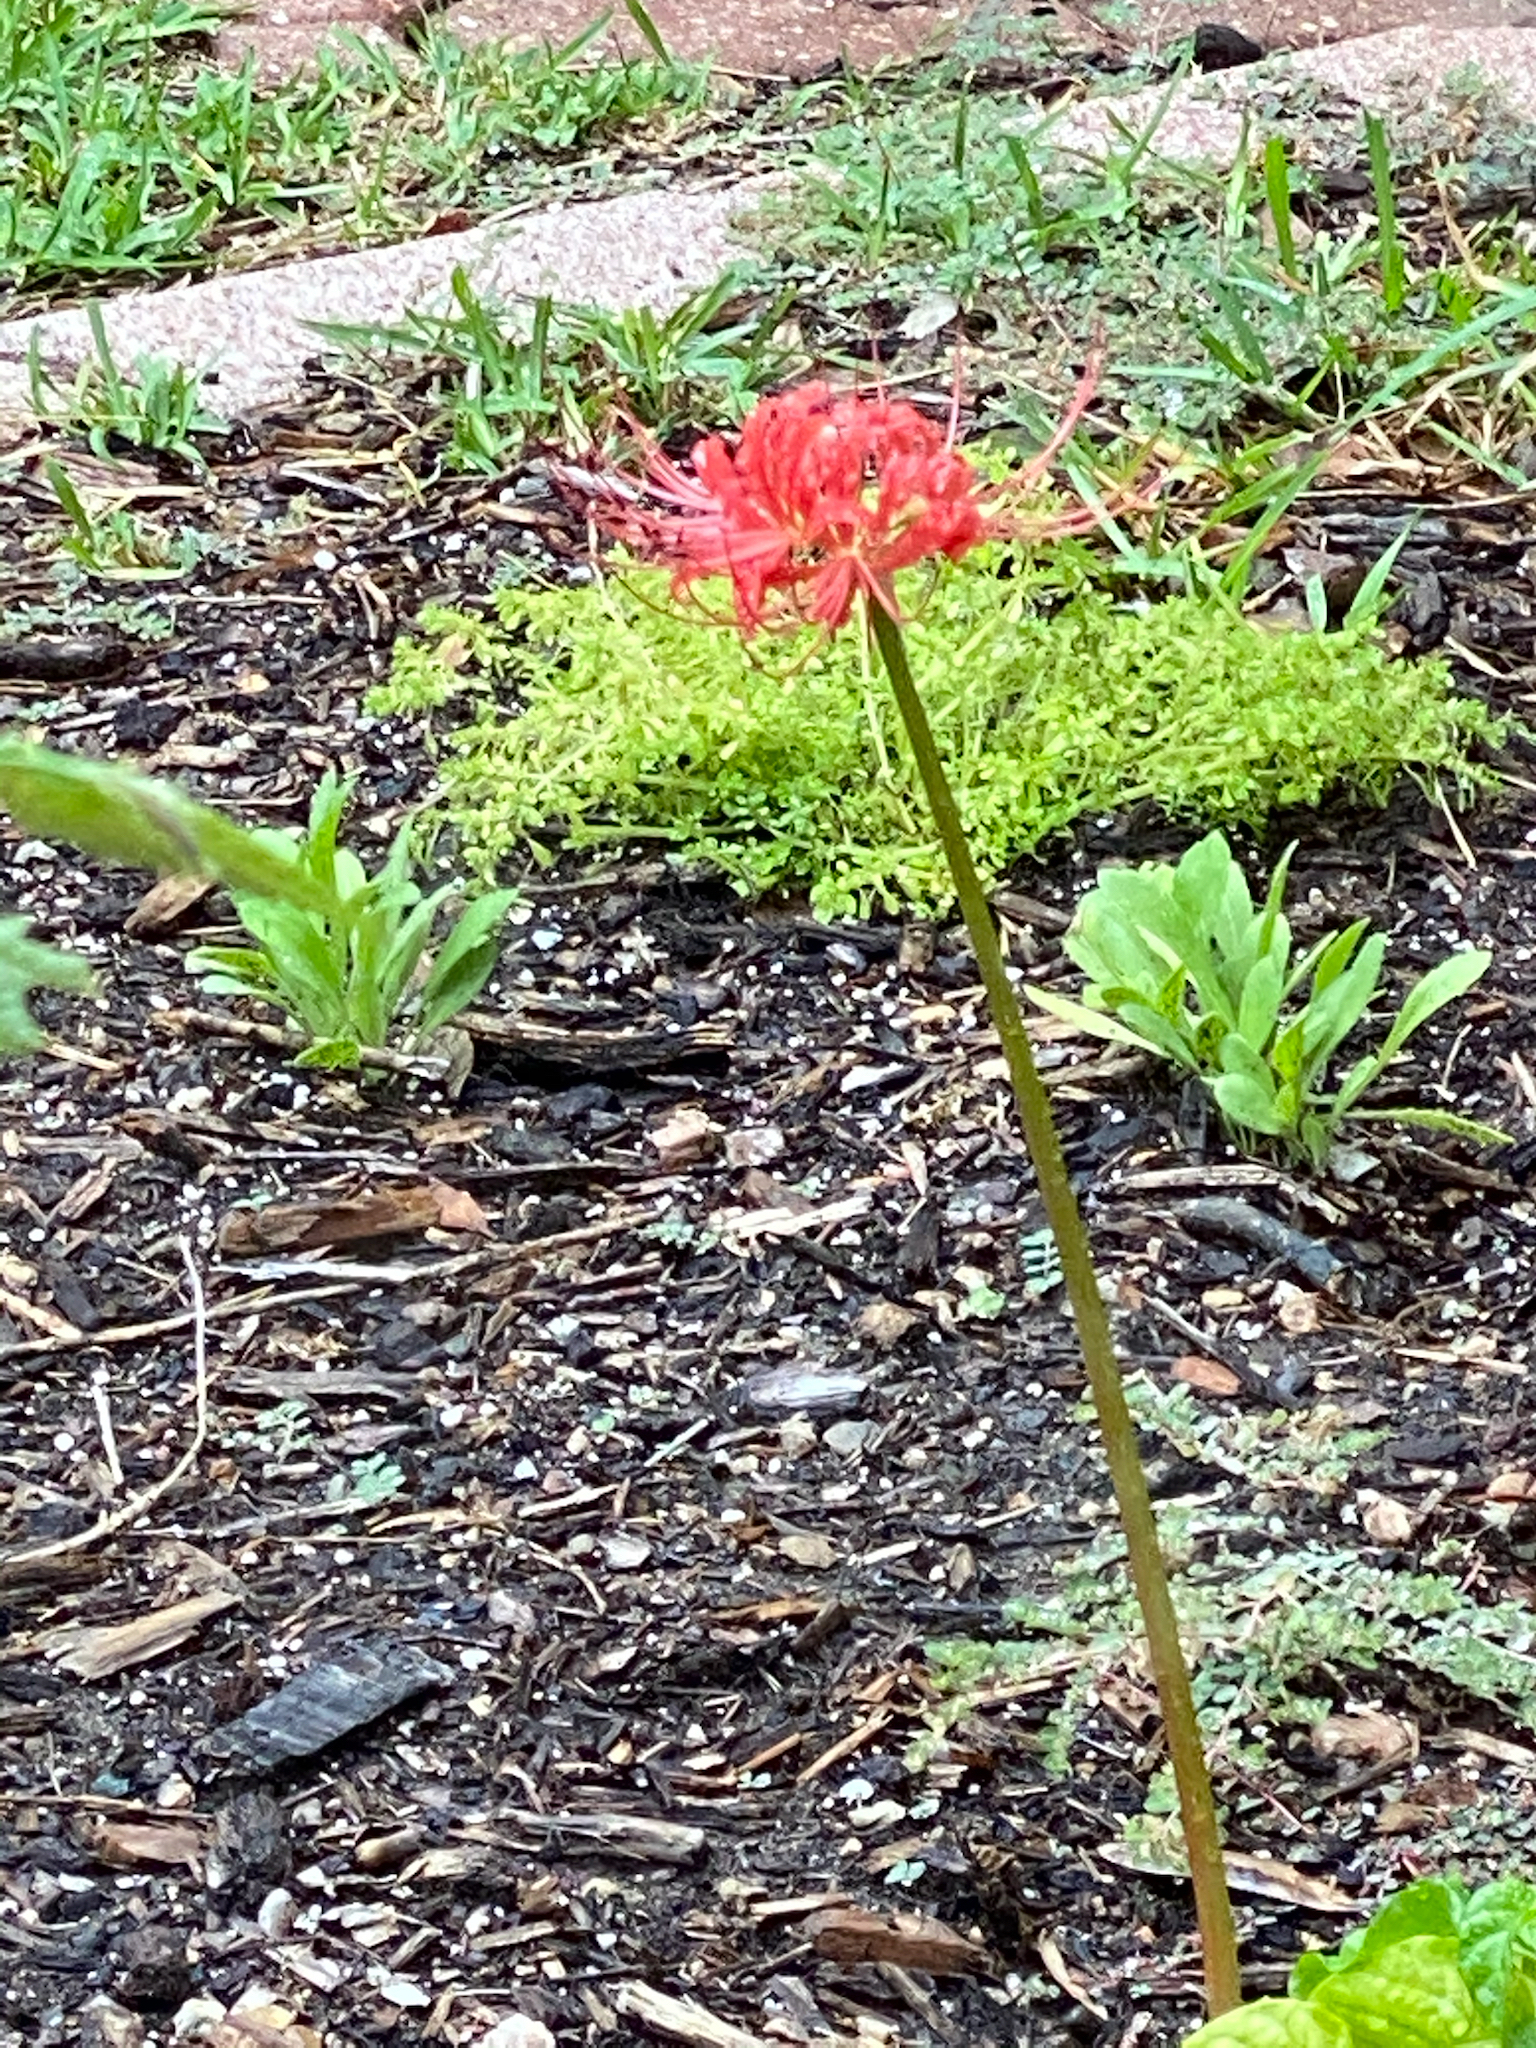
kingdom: Plantae
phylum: Tracheophyta
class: Liliopsida
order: Asparagales
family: Amaryllidaceae
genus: Lycoris
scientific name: Lycoris radiata
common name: Red spider lily
